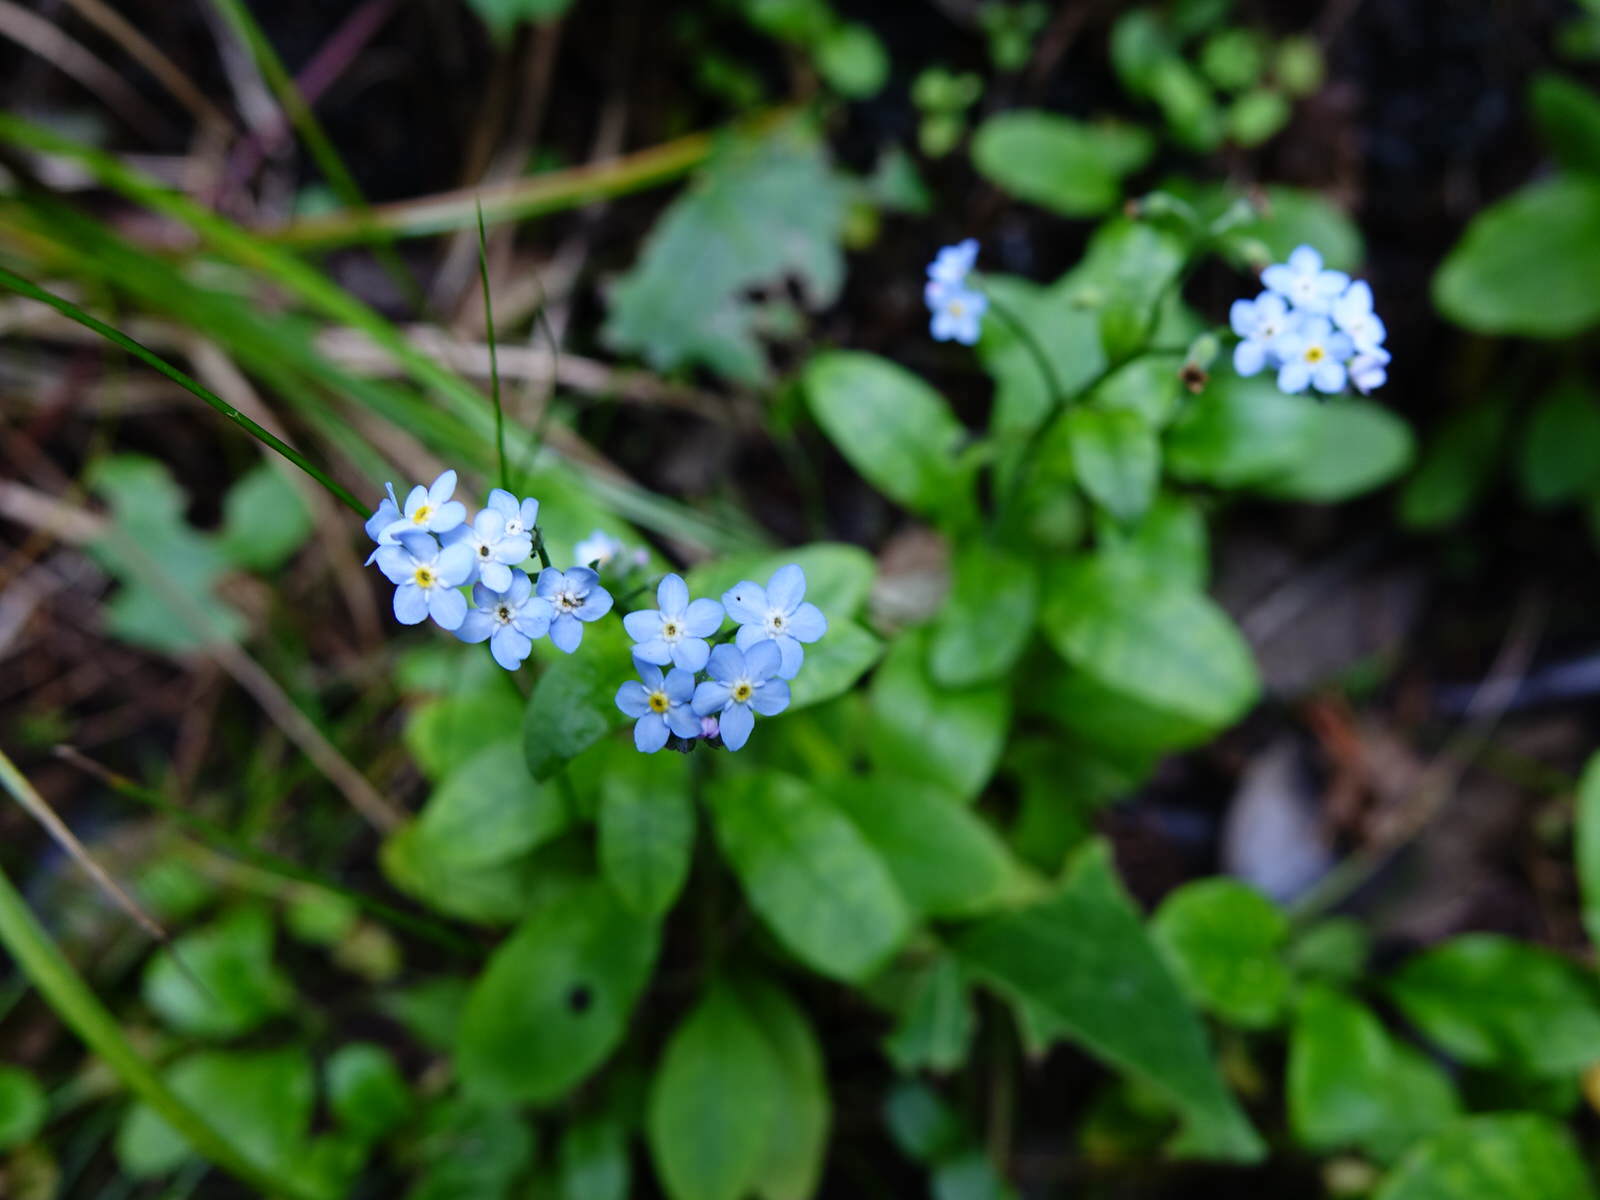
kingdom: Plantae
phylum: Tracheophyta
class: Magnoliopsida
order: Boraginales
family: Boraginaceae
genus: Myosotis
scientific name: Myosotis sylvatica
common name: Wood forget-me-not
